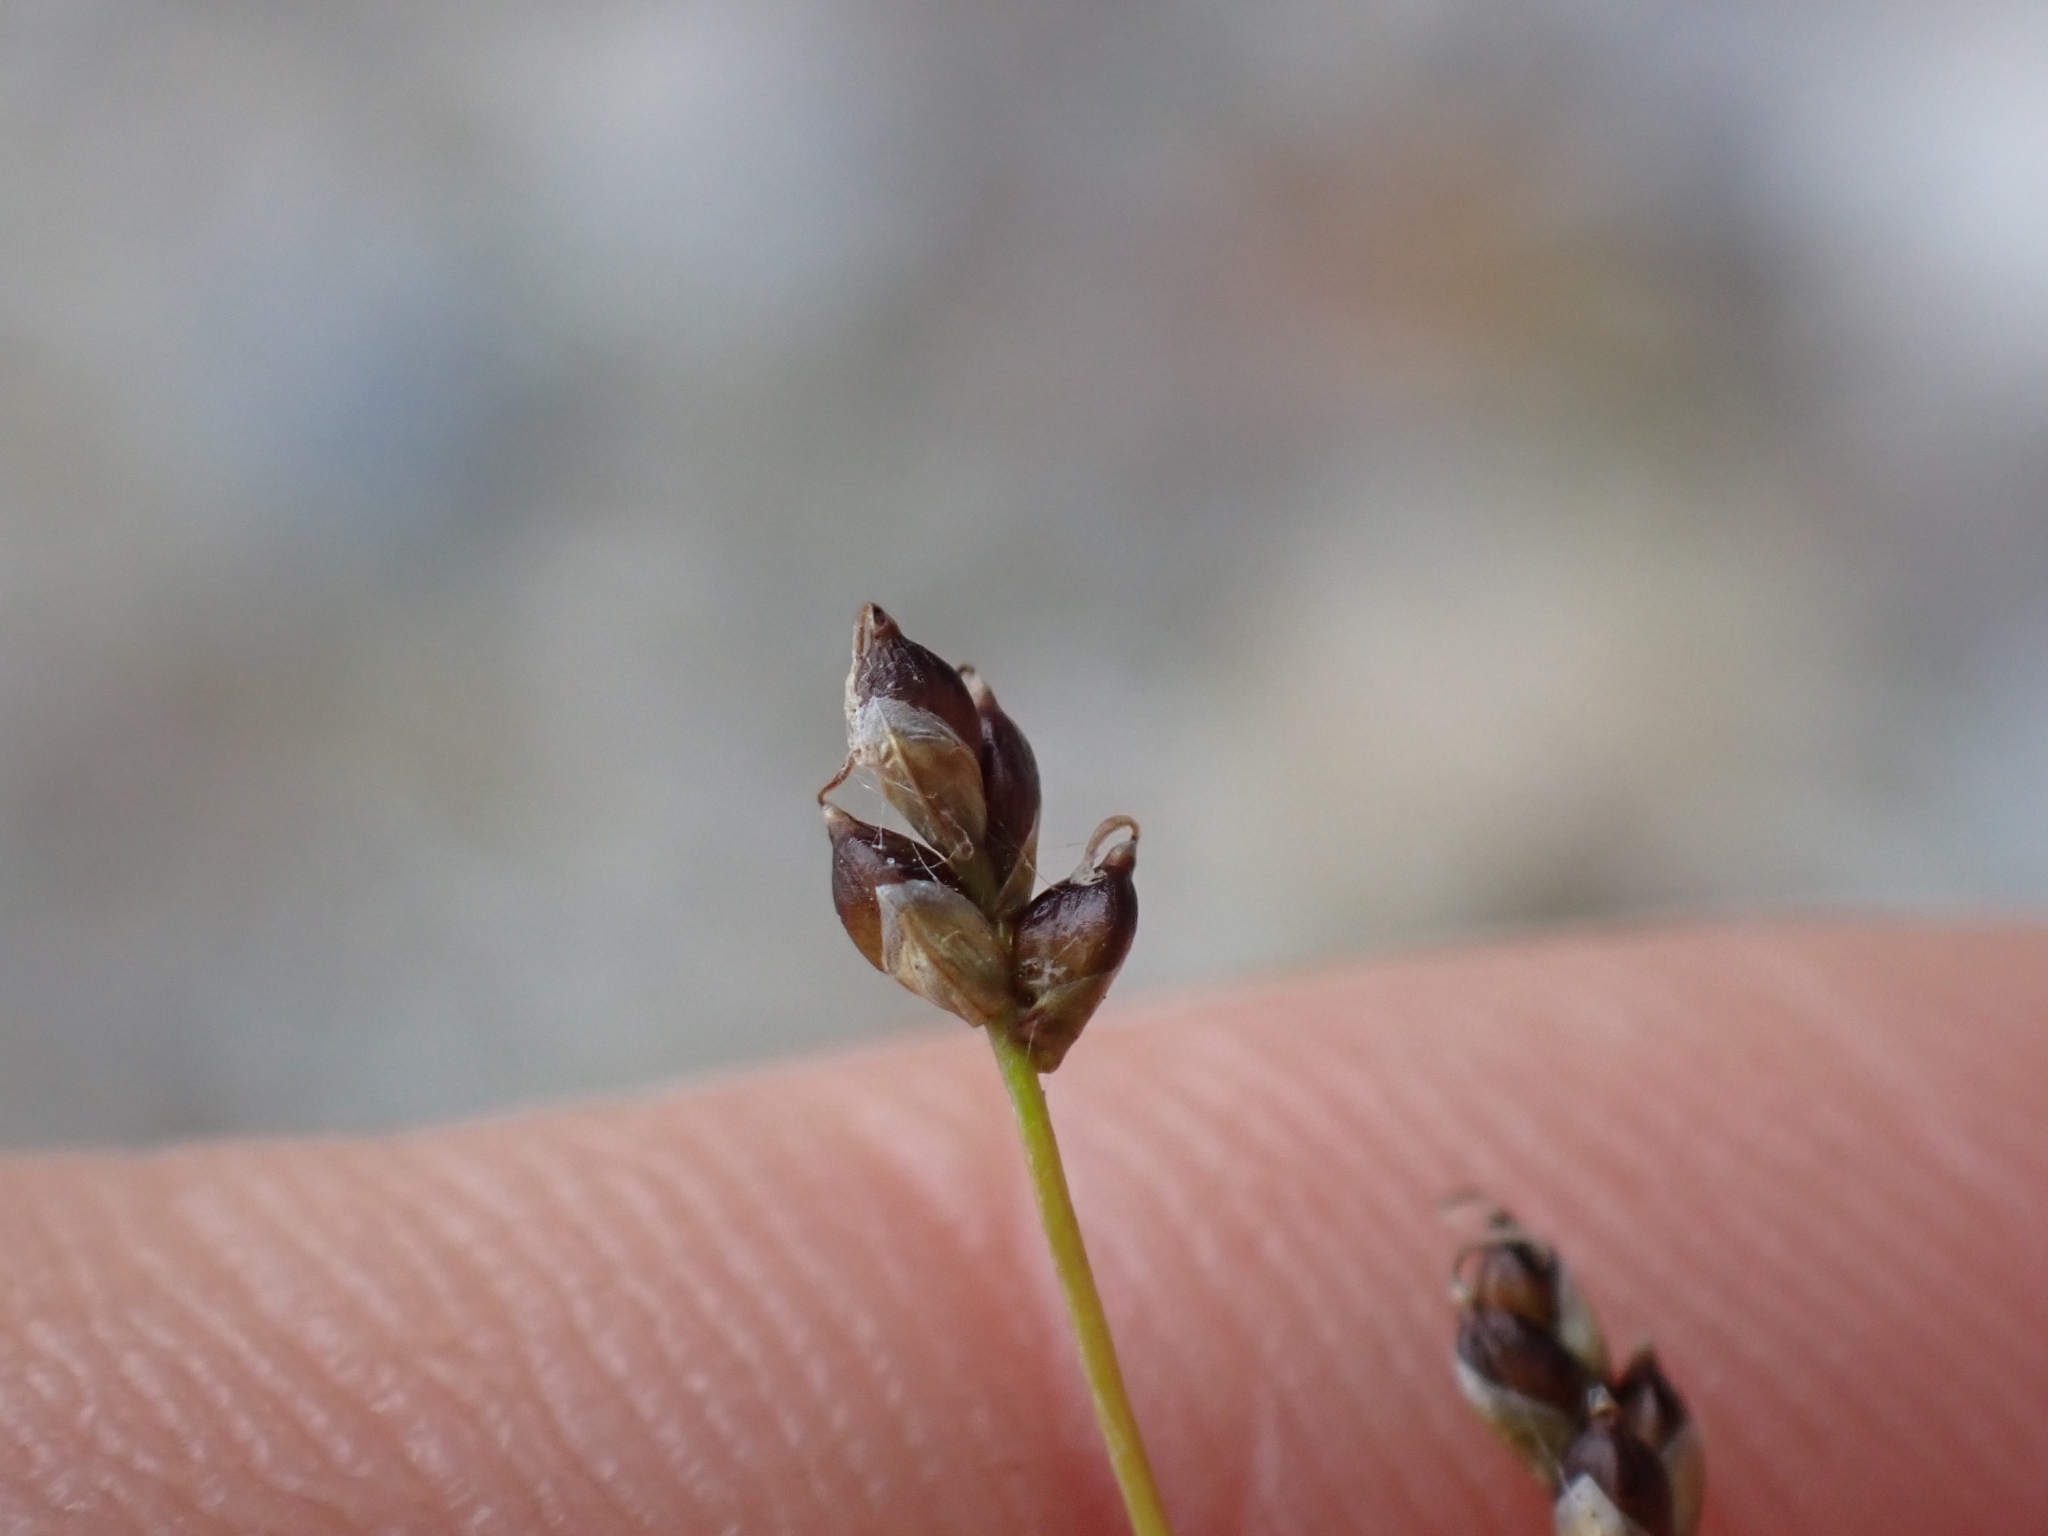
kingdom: Plantae
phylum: Tracheophyta
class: Liliopsida
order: Poales
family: Cyperaceae
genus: Carex
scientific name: Carex eburnea
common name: Bristle-leaved sedge
